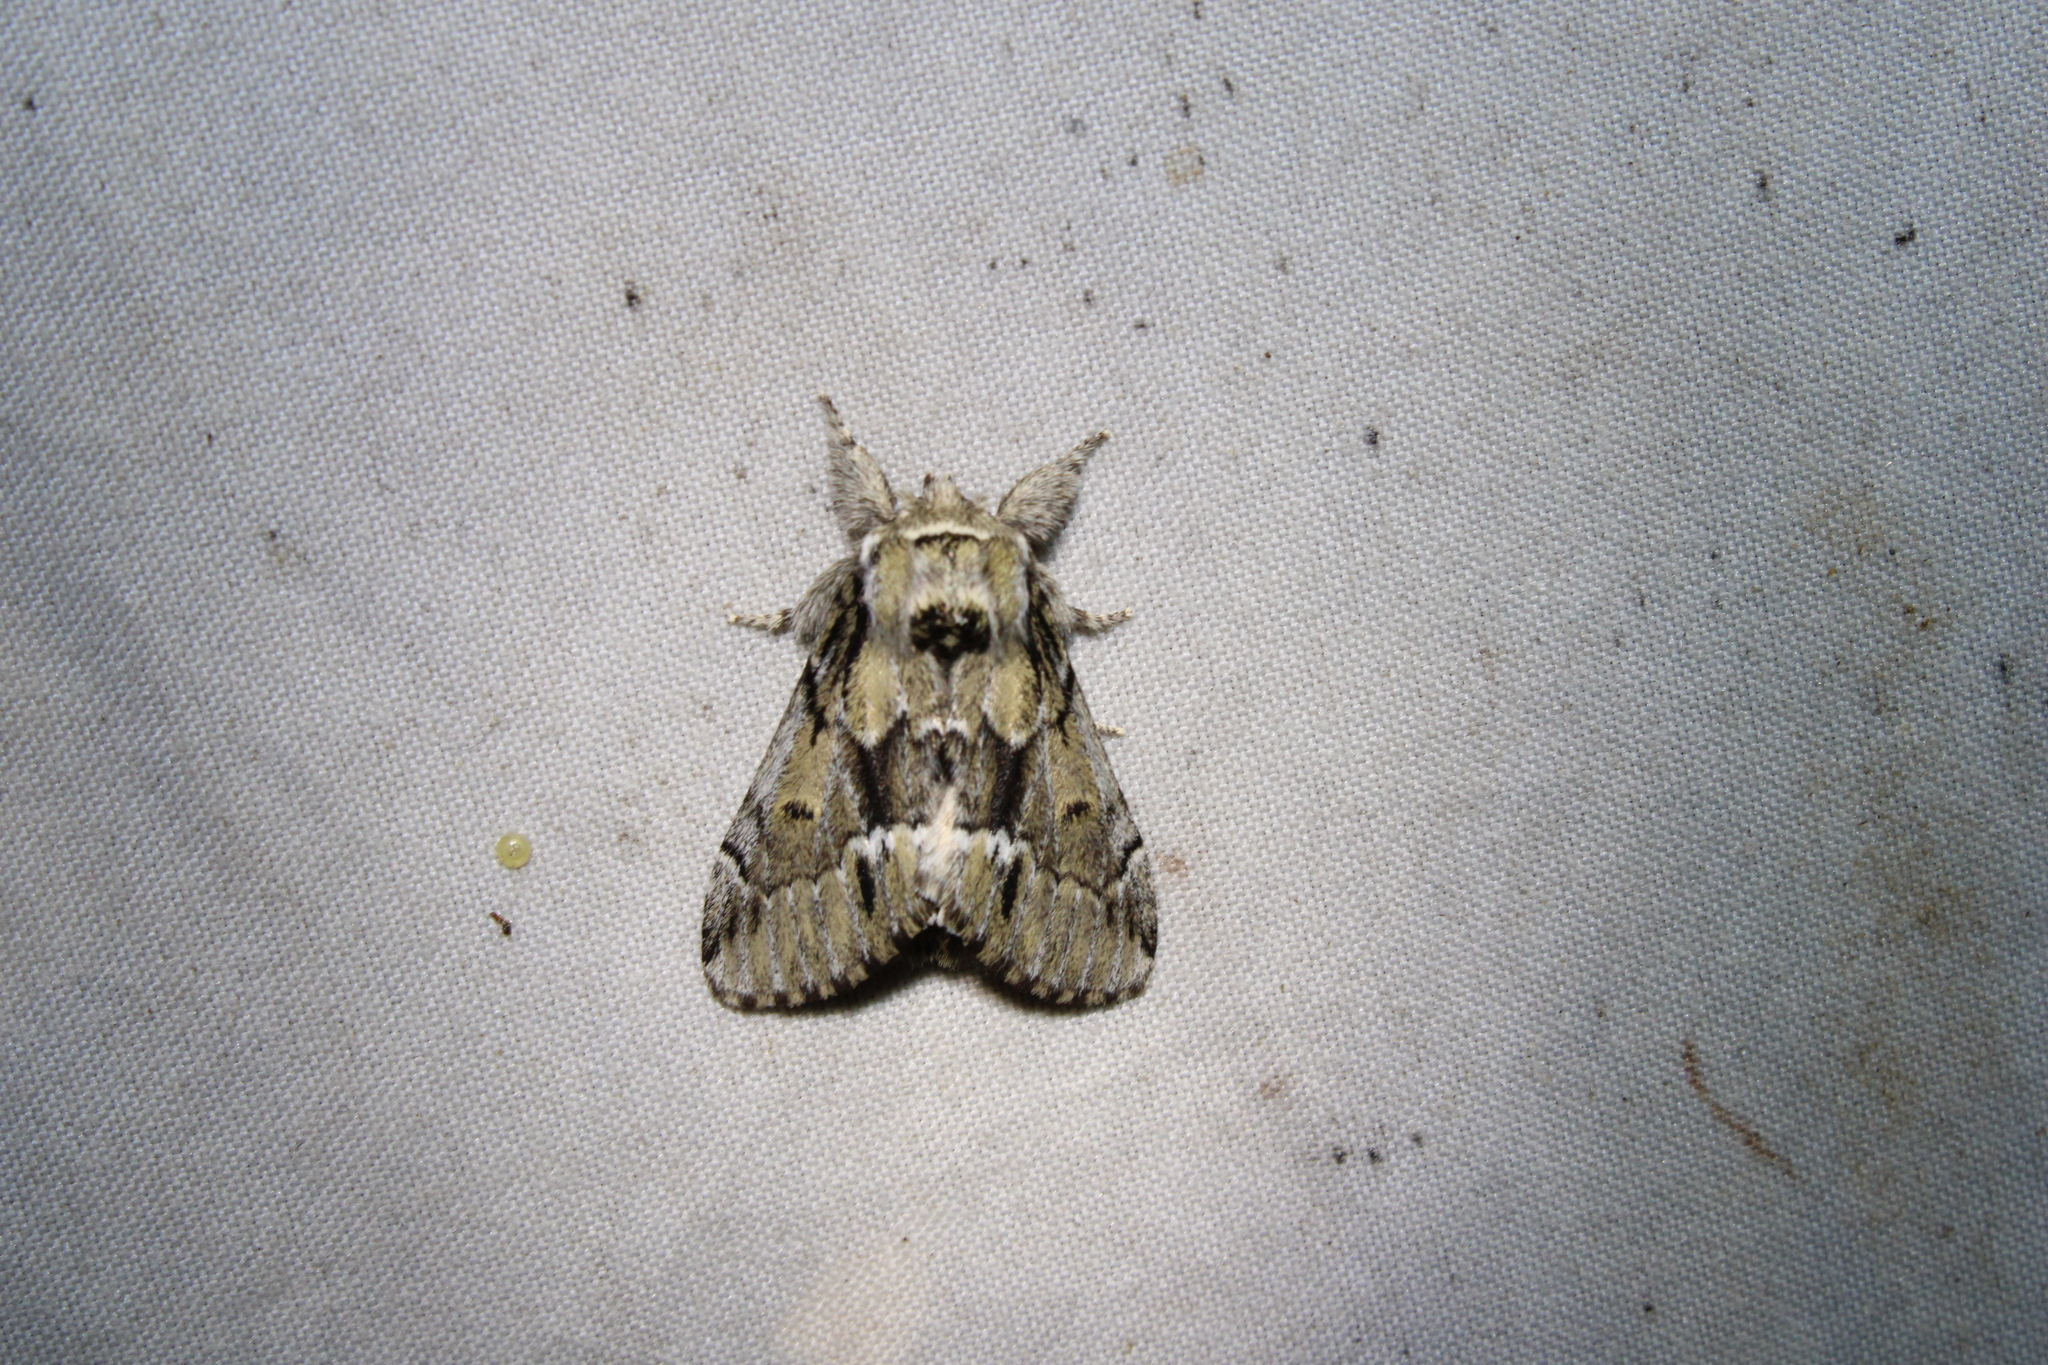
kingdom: Animalia
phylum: Arthropoda
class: Insecta
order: Lepidoptera
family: Notodontidae
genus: Paraeschra
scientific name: Paraeschra georgica
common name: Georgian prominent
